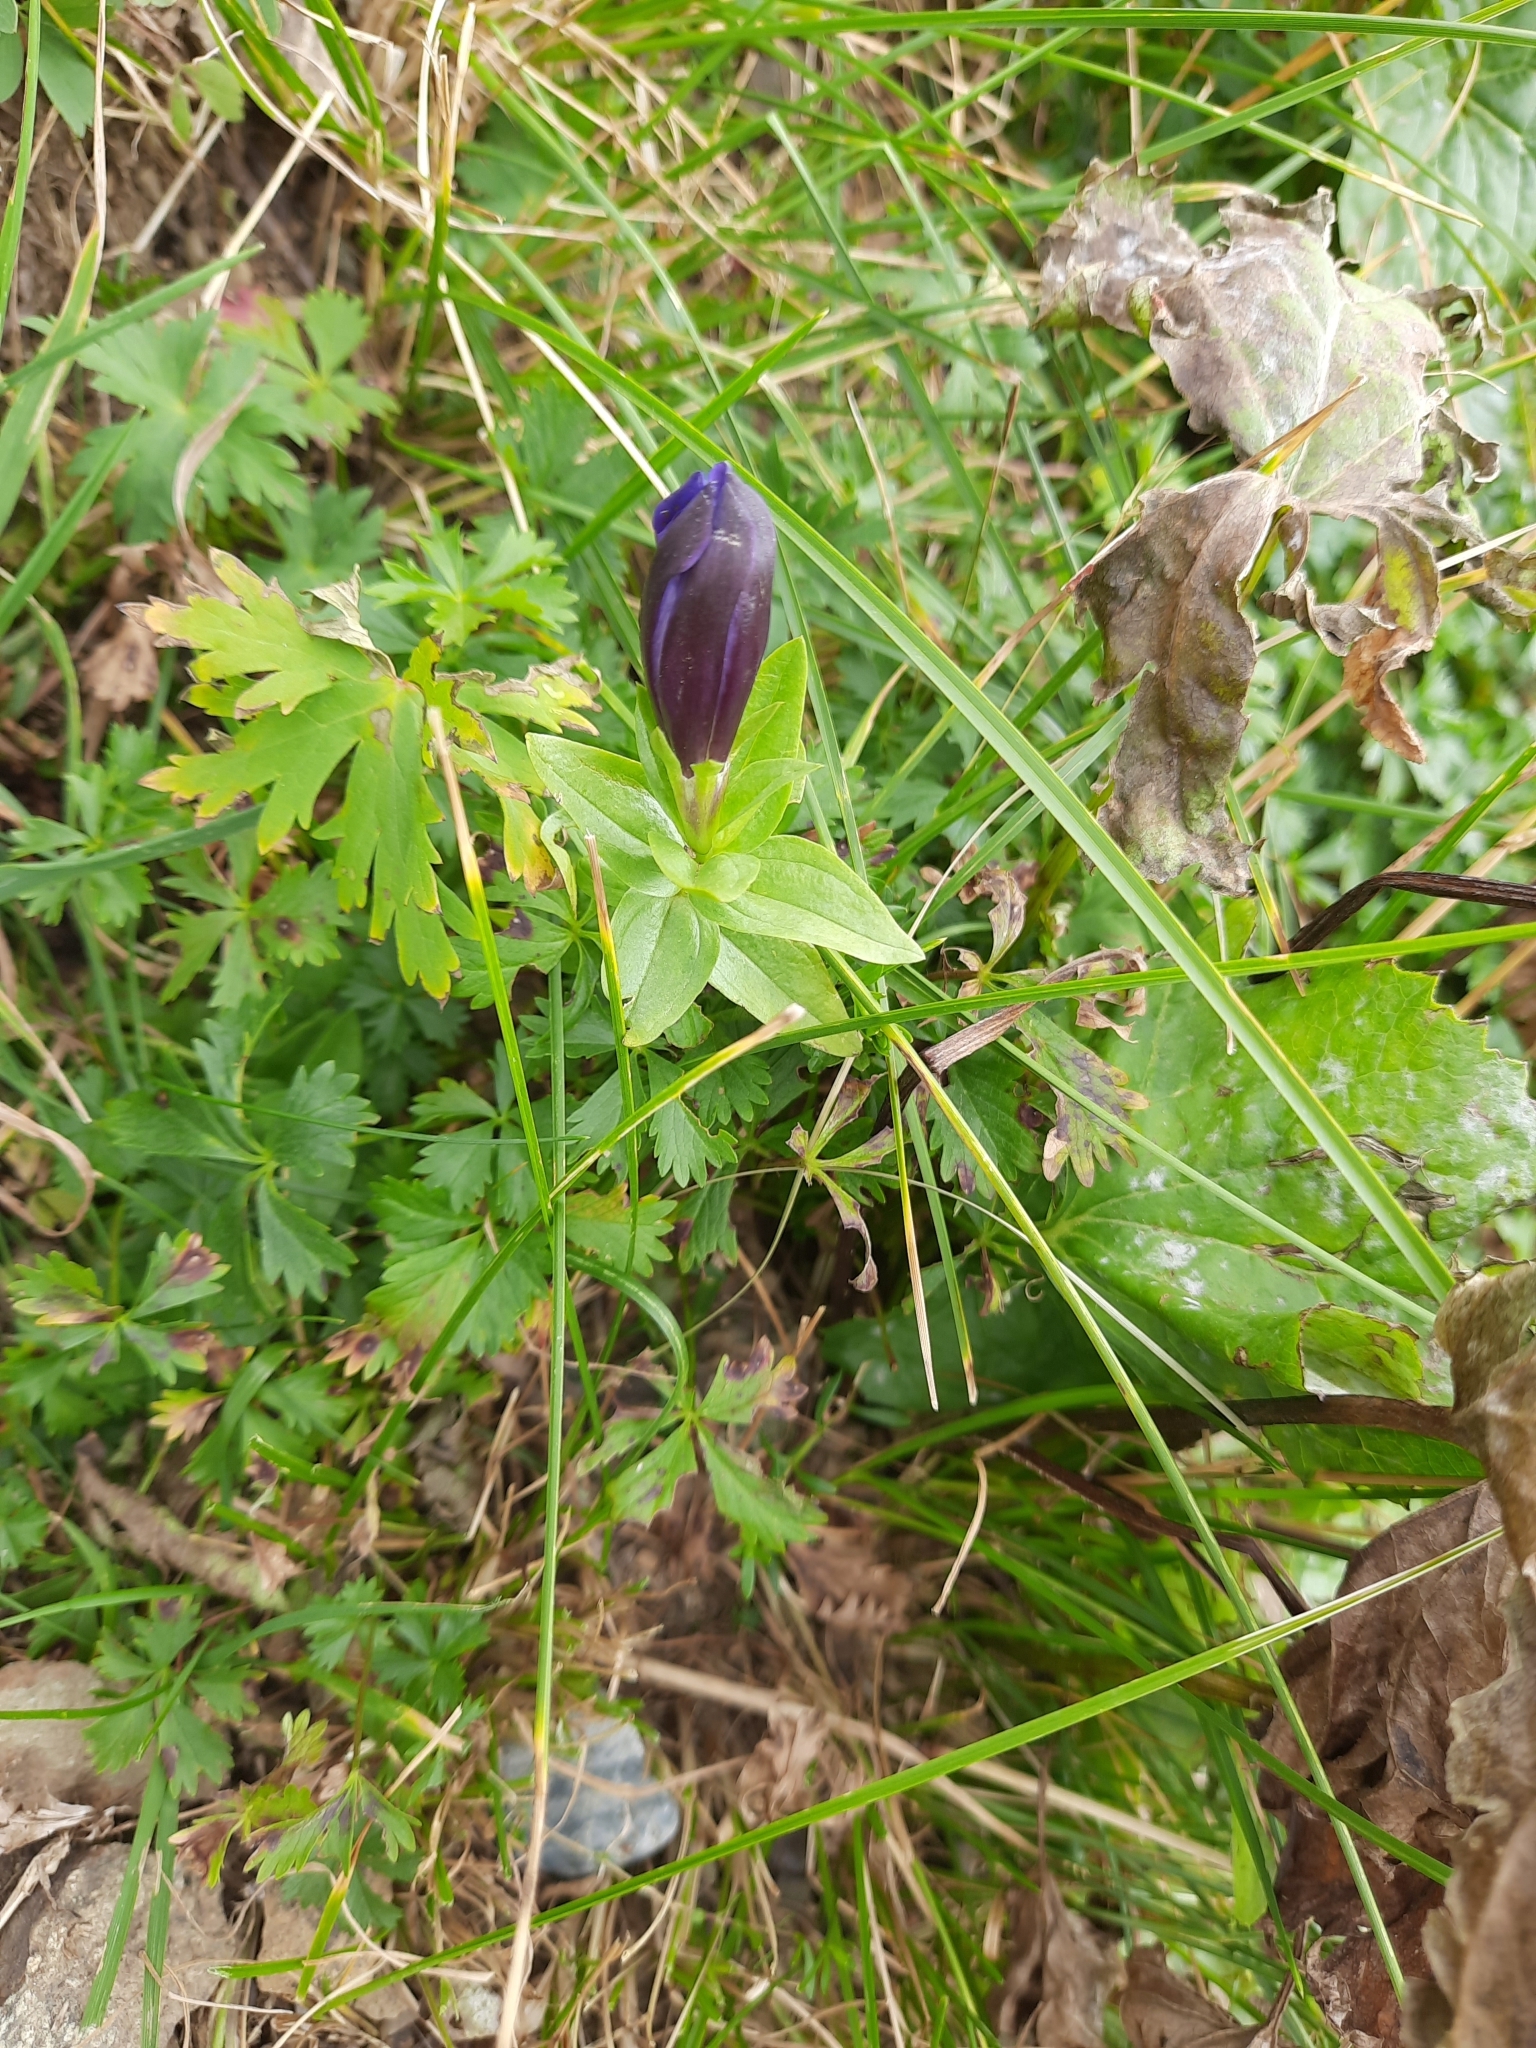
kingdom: Plantae
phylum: Tracheophyta
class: Magnoliopsida
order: Gentianales
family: Gentianaceae
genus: Gentiana
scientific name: Gentiana septemfida
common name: Crested gentian
